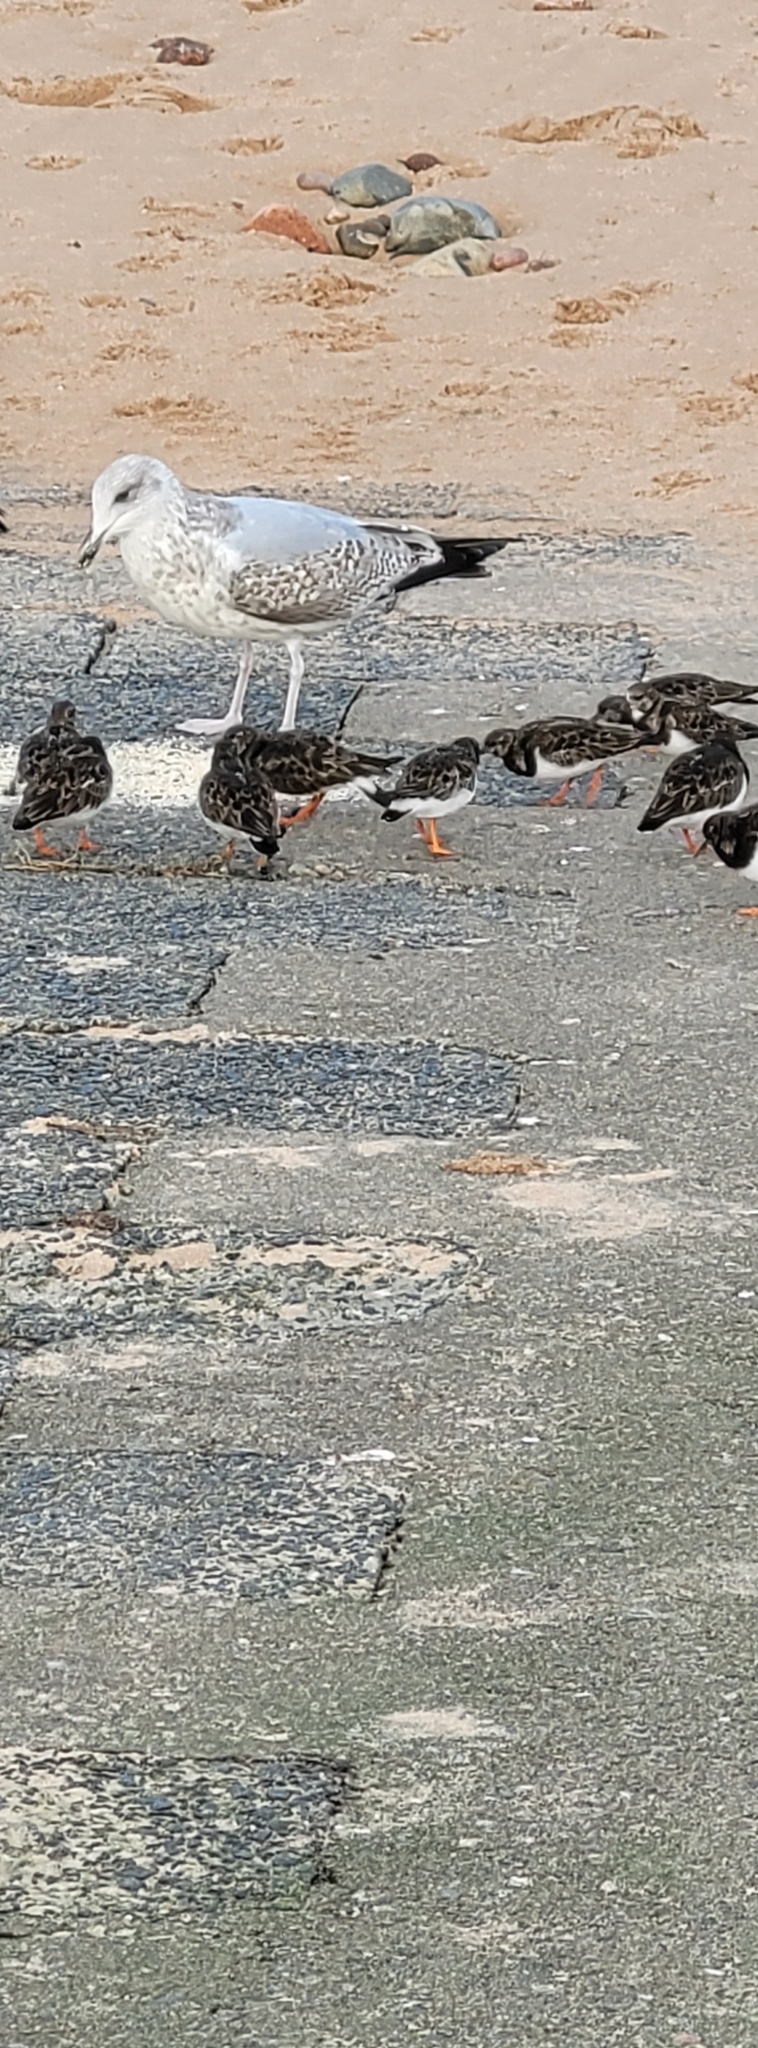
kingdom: Animalia
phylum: Chordata
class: Aves
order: Charadriiformes
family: Scolopacidae
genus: Arenaria
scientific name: Arenaria interpres
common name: Ruddy turnstone
